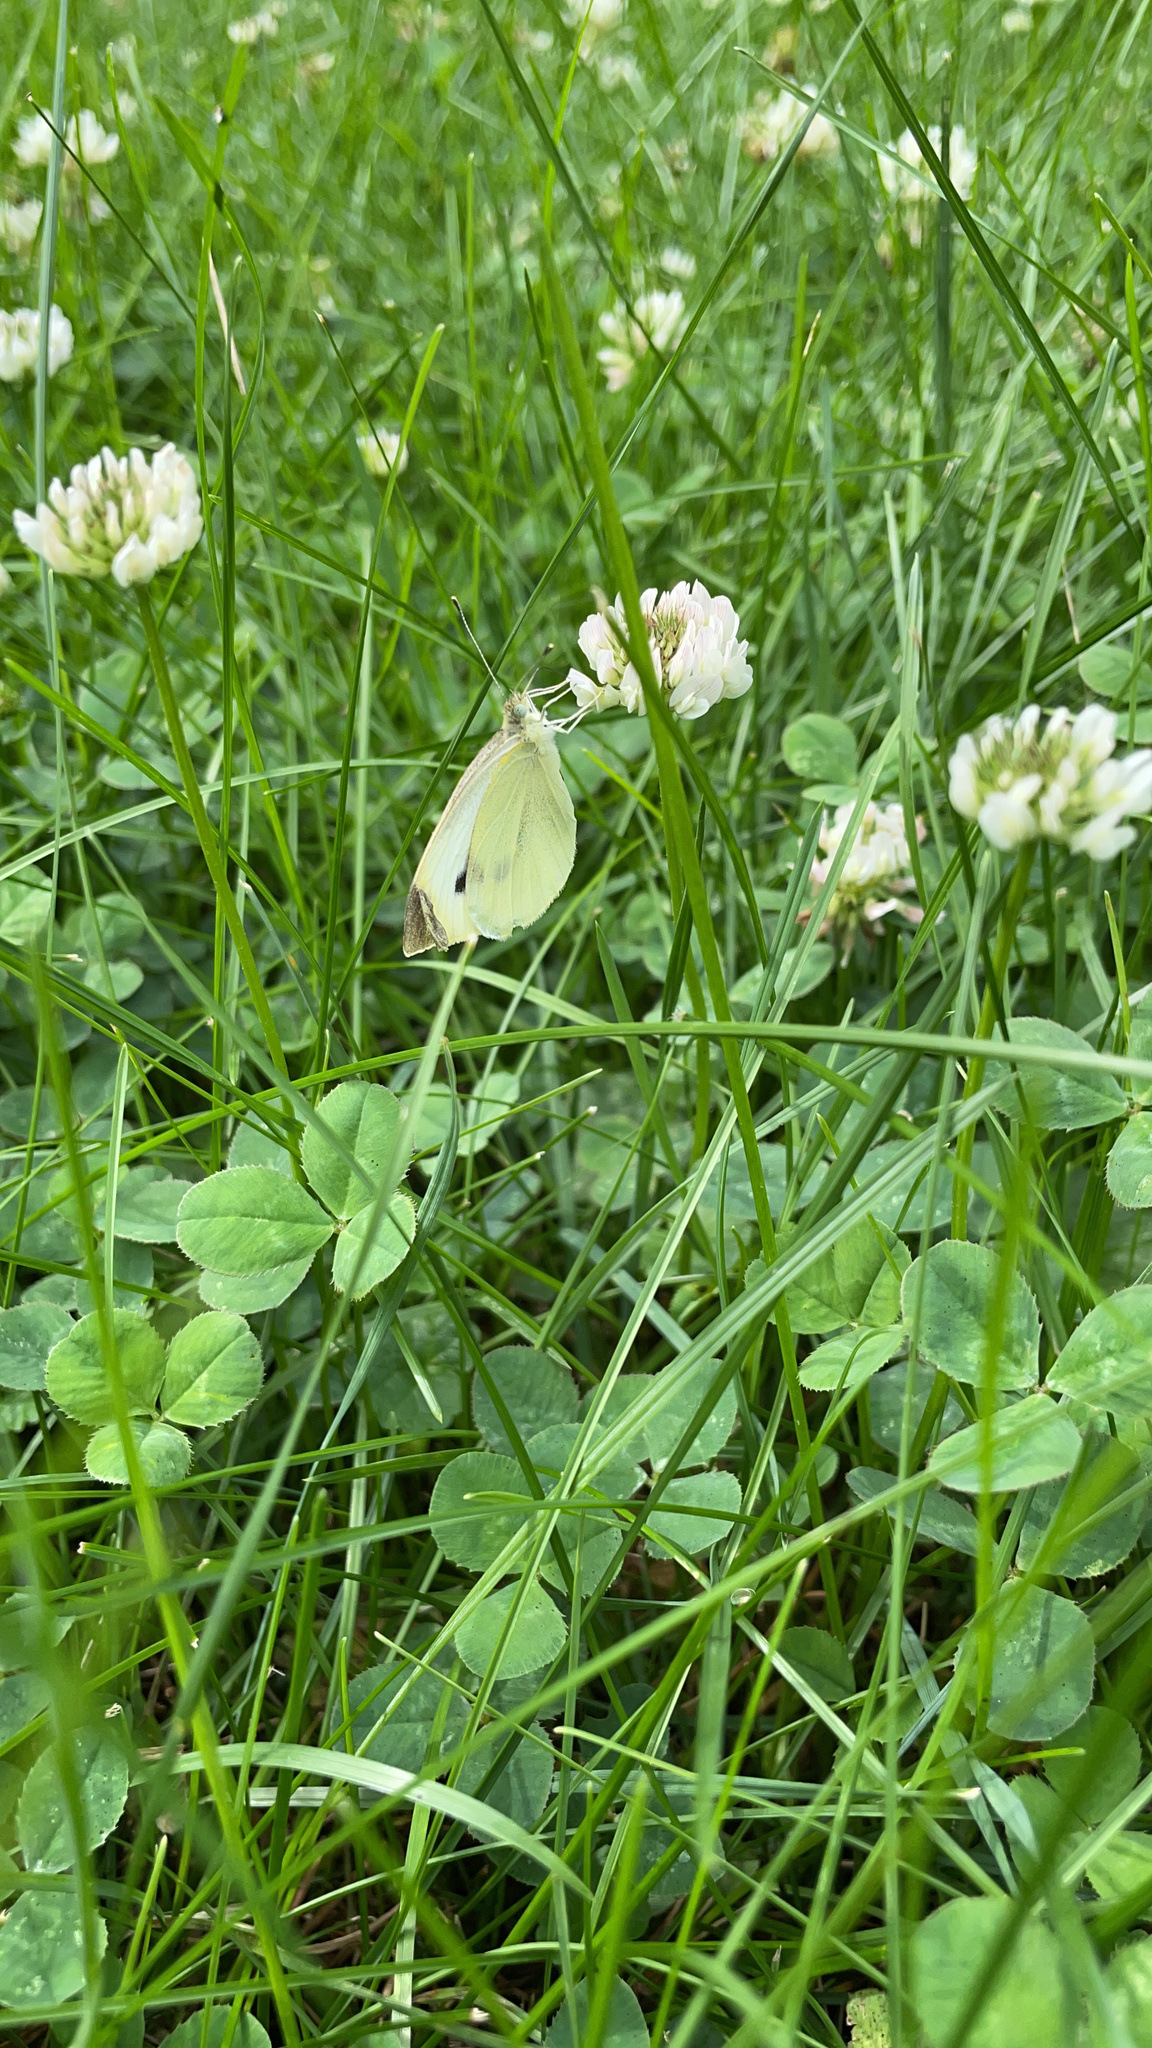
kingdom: Animalia
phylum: Arthropoda
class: Insecta
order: Lepidoptera
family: Pieridae
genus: Pieris
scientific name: Pieris rapae
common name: Small white
